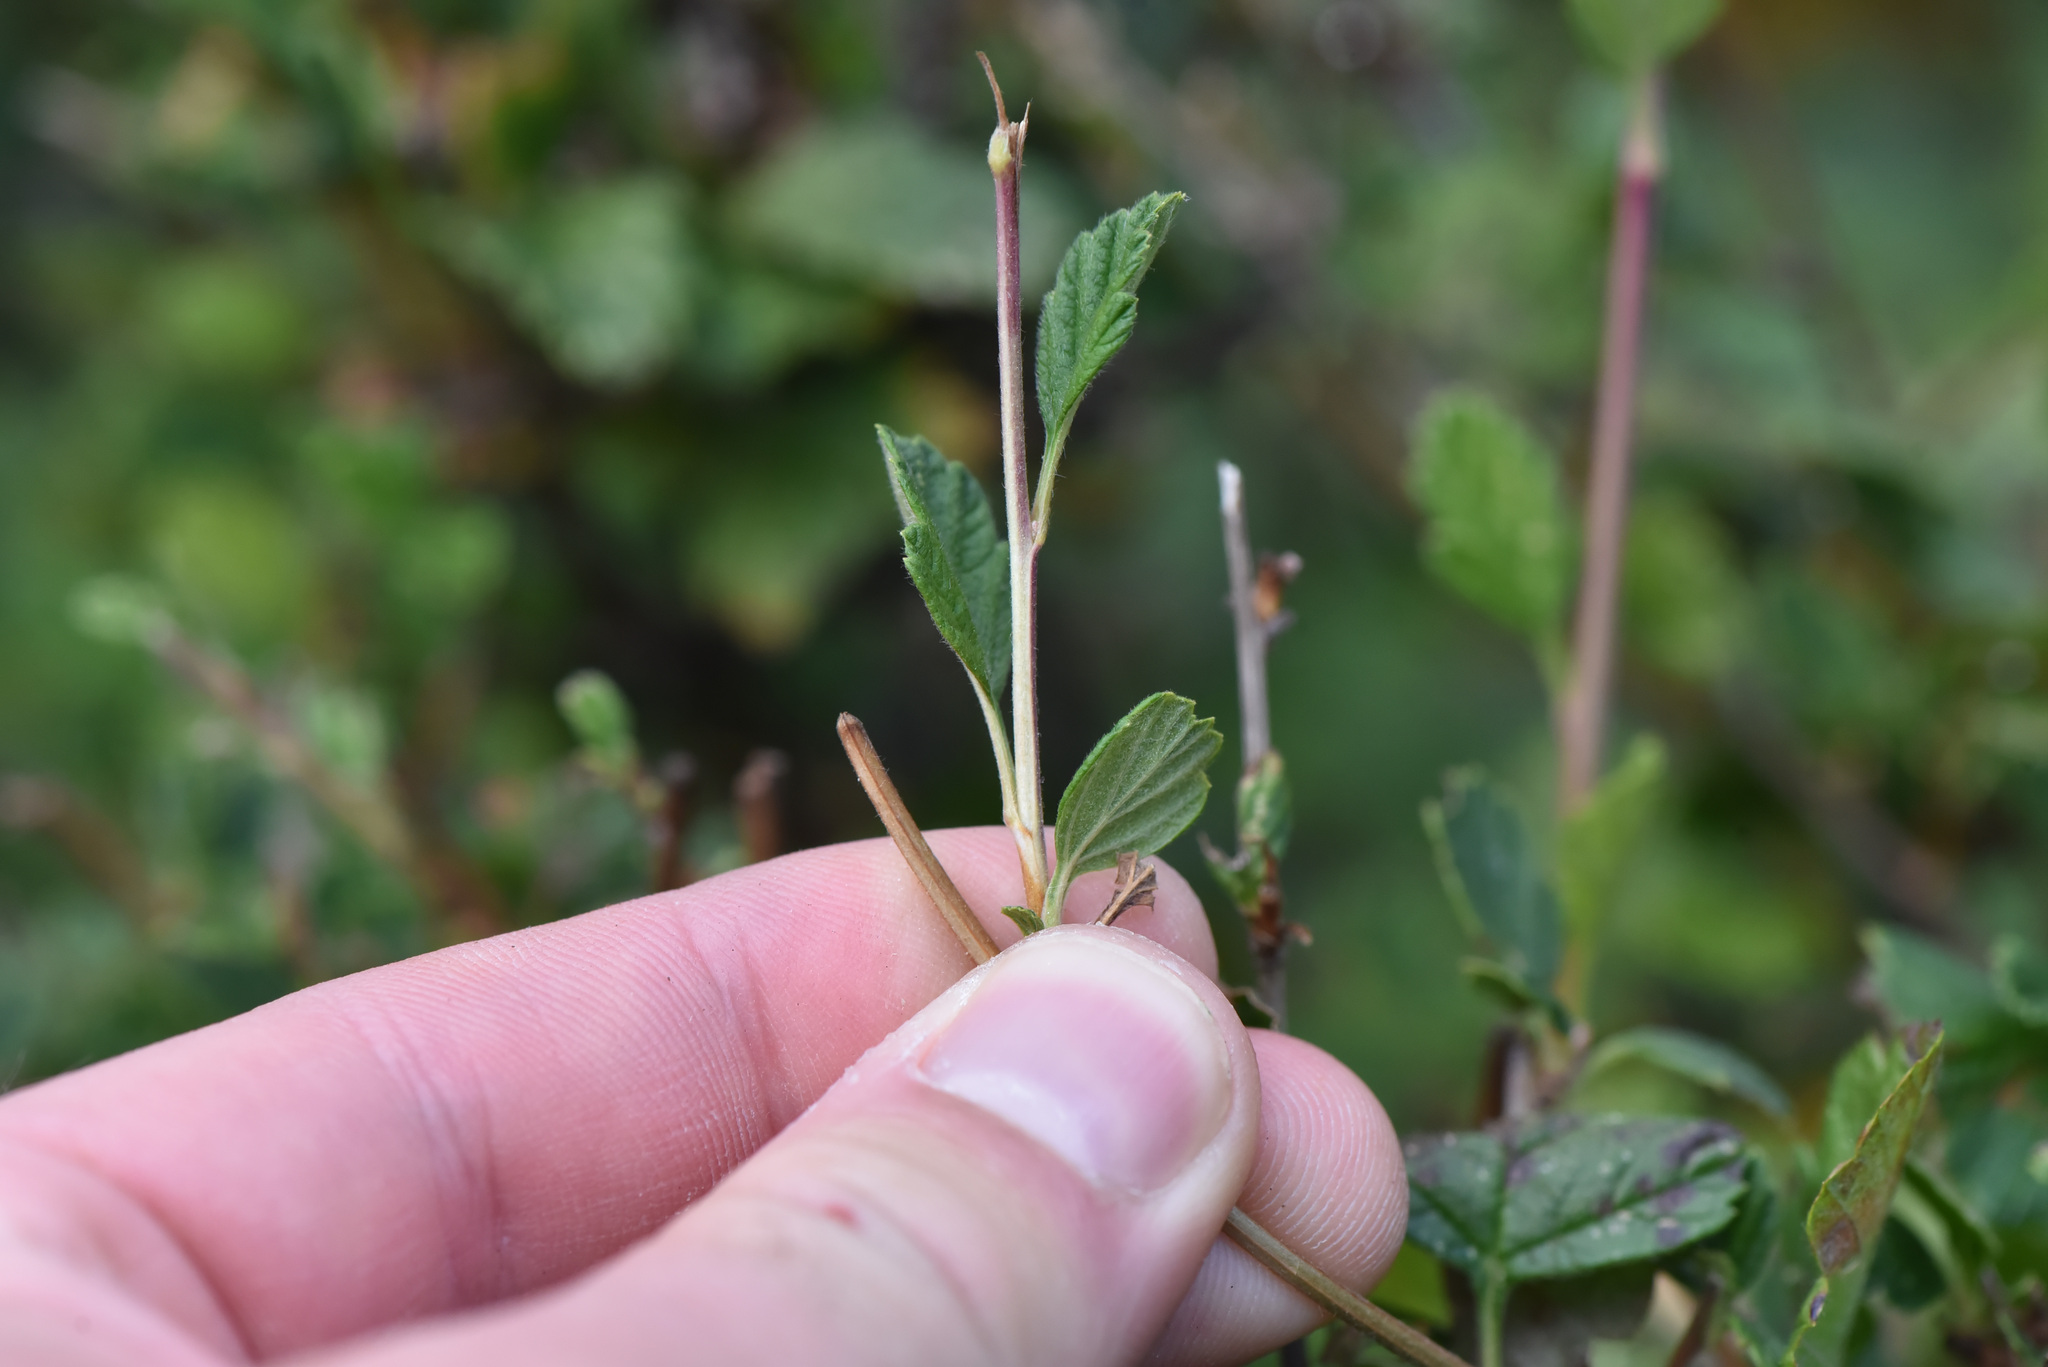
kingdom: Plantae
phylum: Tracheophyta
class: Magnoliopsida
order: Rosales
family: Rosaceae
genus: Holodiscus
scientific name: Holodiscus discolor
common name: Oceanspray
